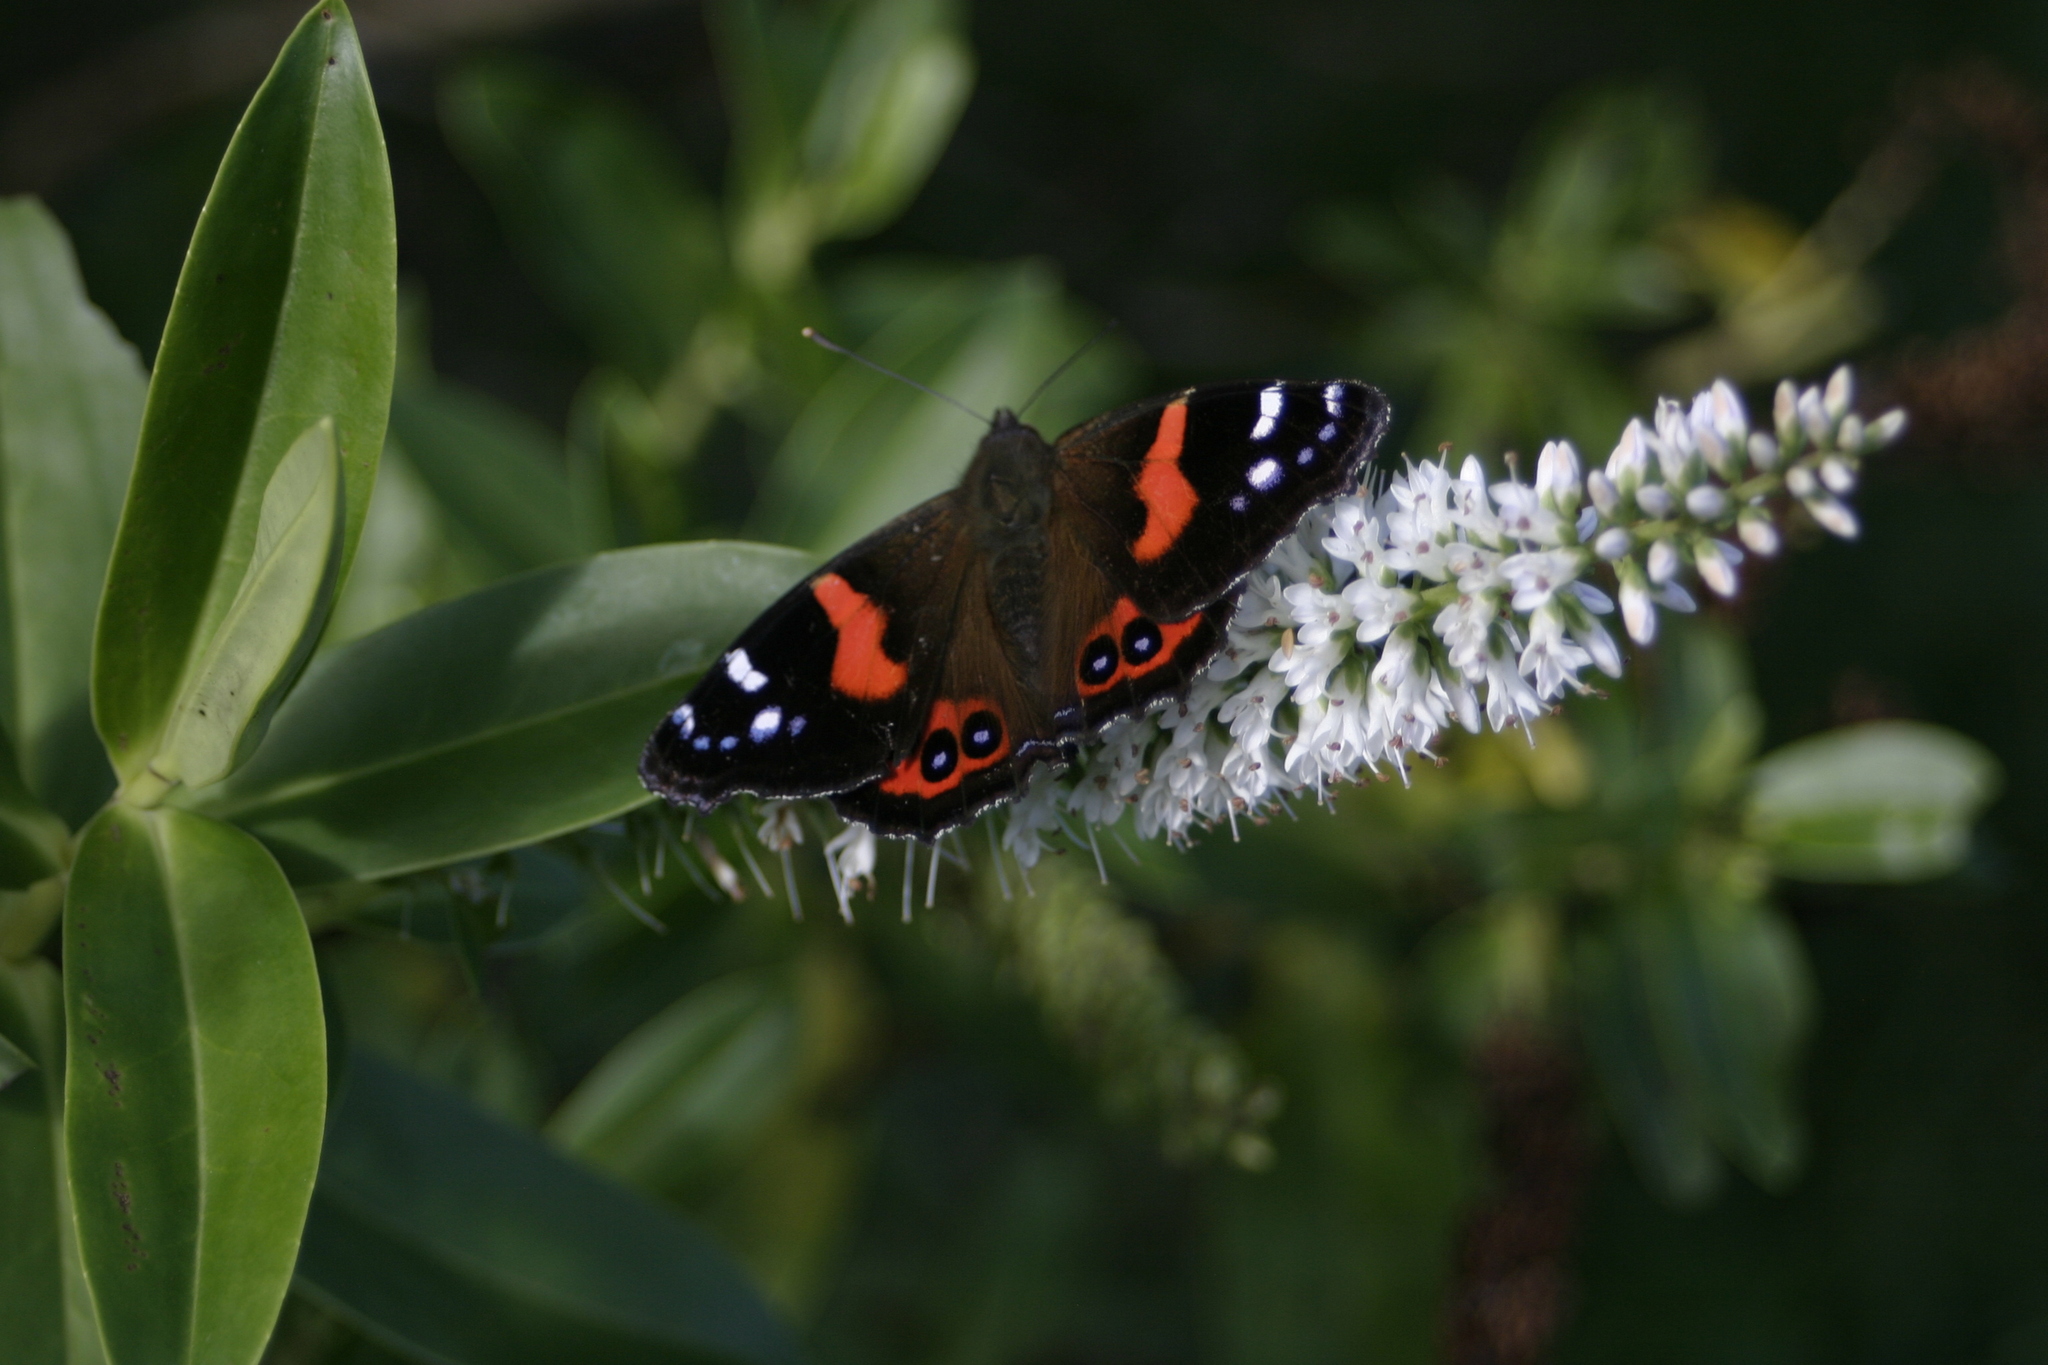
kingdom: Animalia
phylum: Arthropoda
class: Insecta
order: Lepidoptera
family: Nymphalidae
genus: Vanessa
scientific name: Vanessa gonerilla
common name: New zealand red admiral
